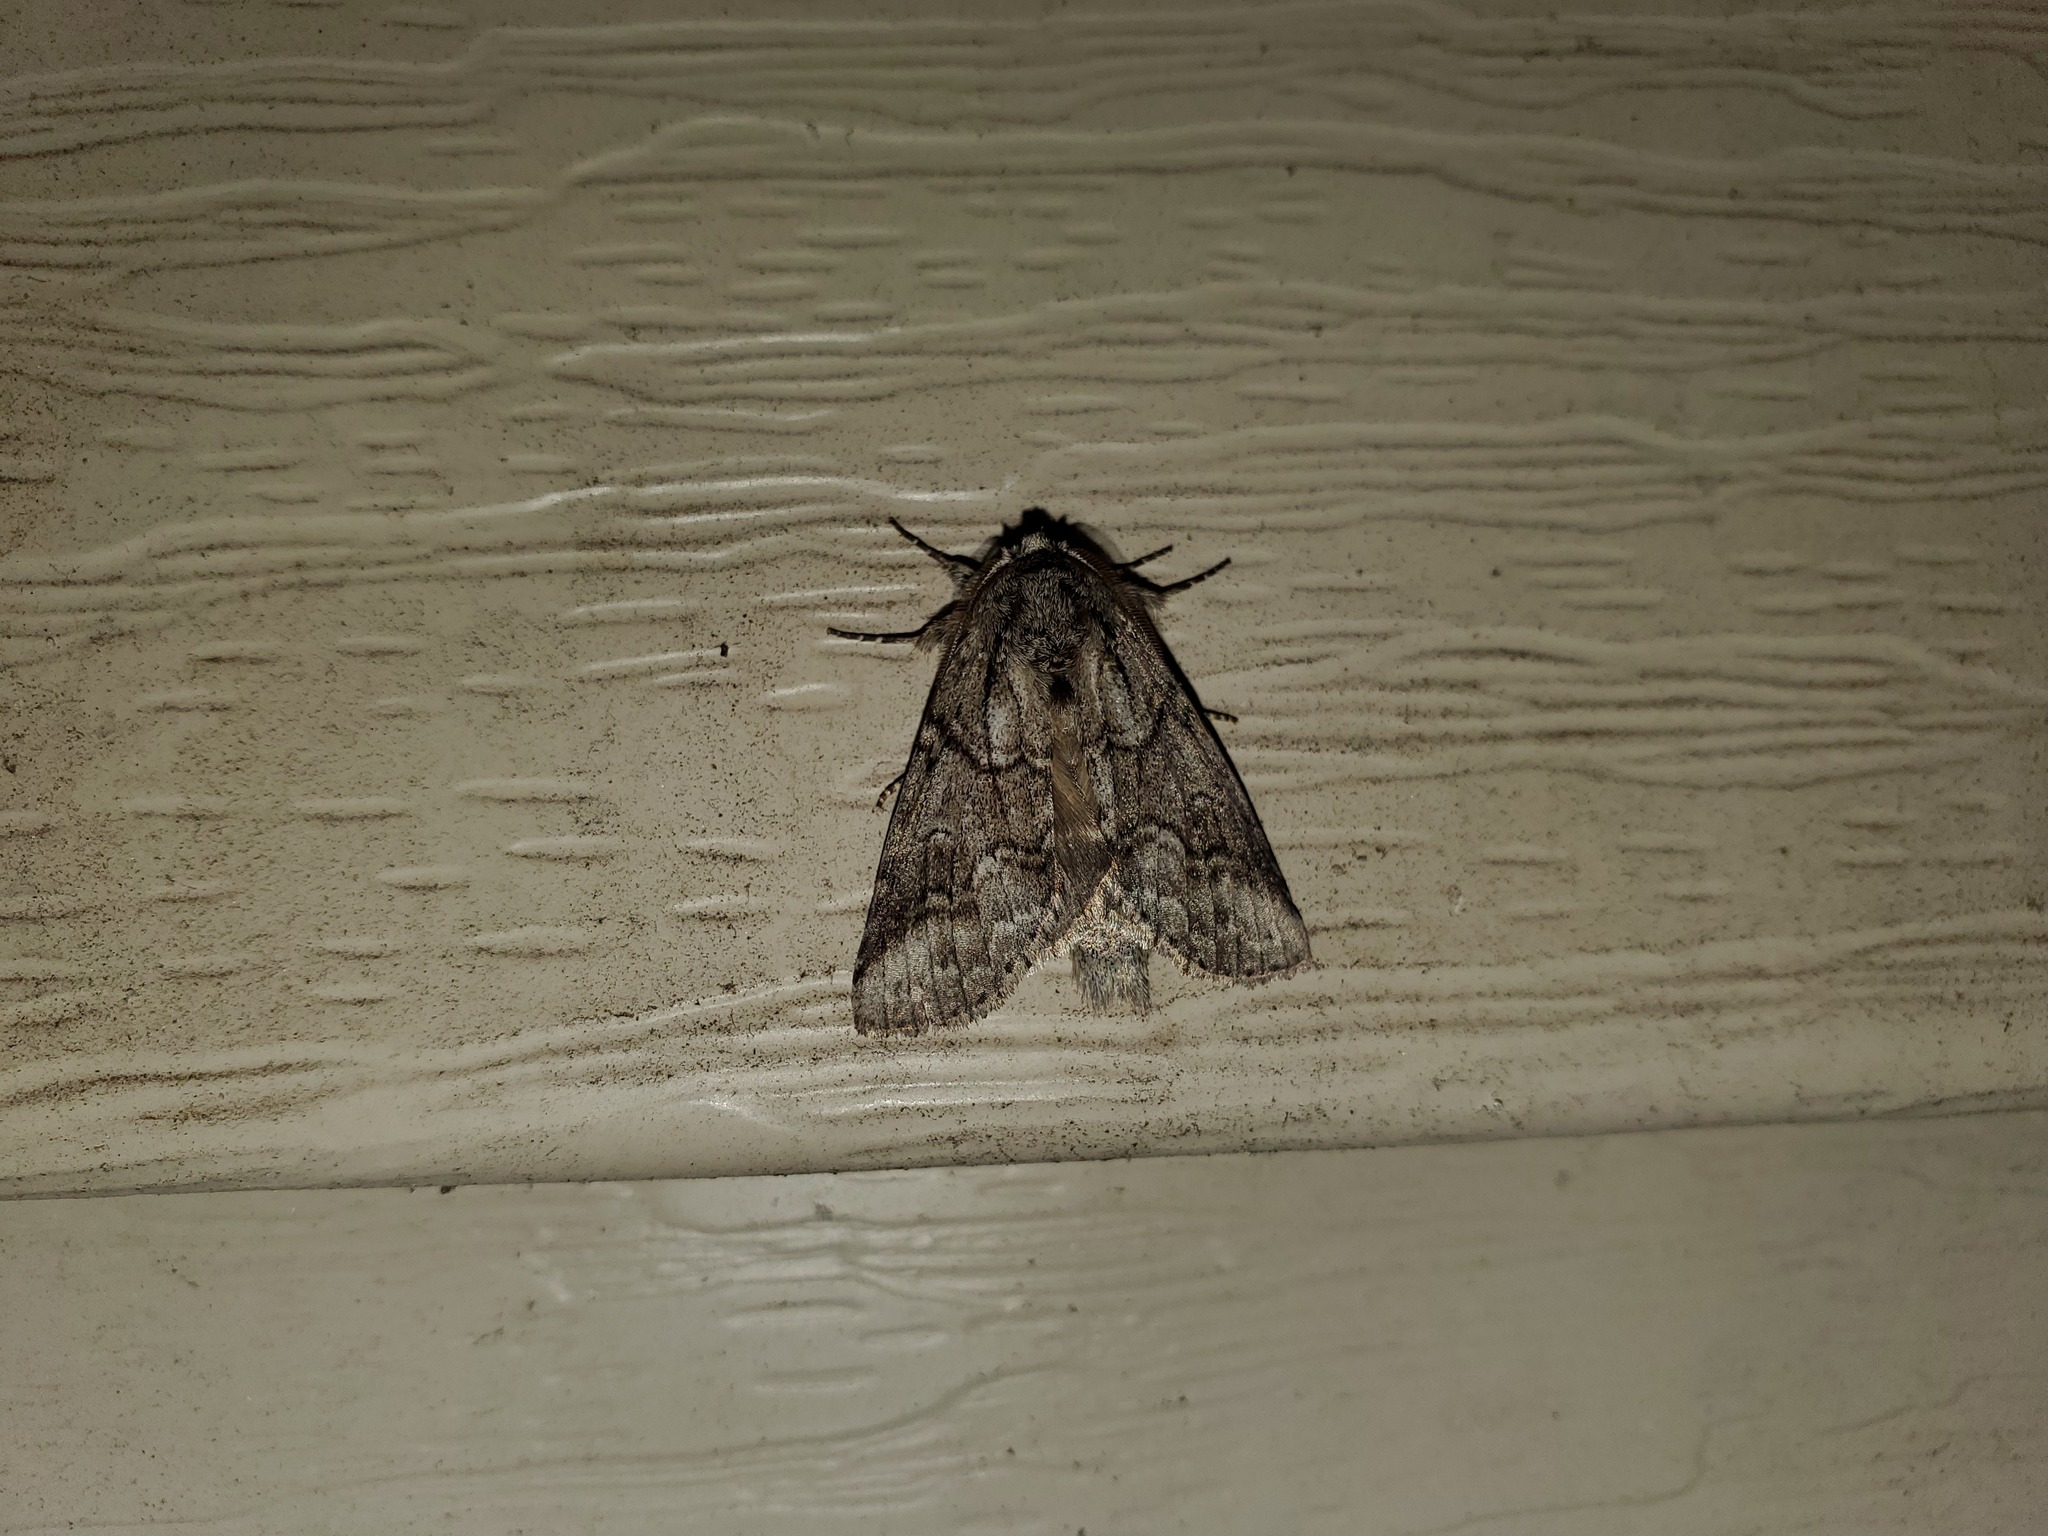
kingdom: Animalia
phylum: Arthropoda
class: Insecta
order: Lepidoptera
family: Notodontidae
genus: Lochmaeus
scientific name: Lochmaeus bilineata
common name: Double-lined prominent
